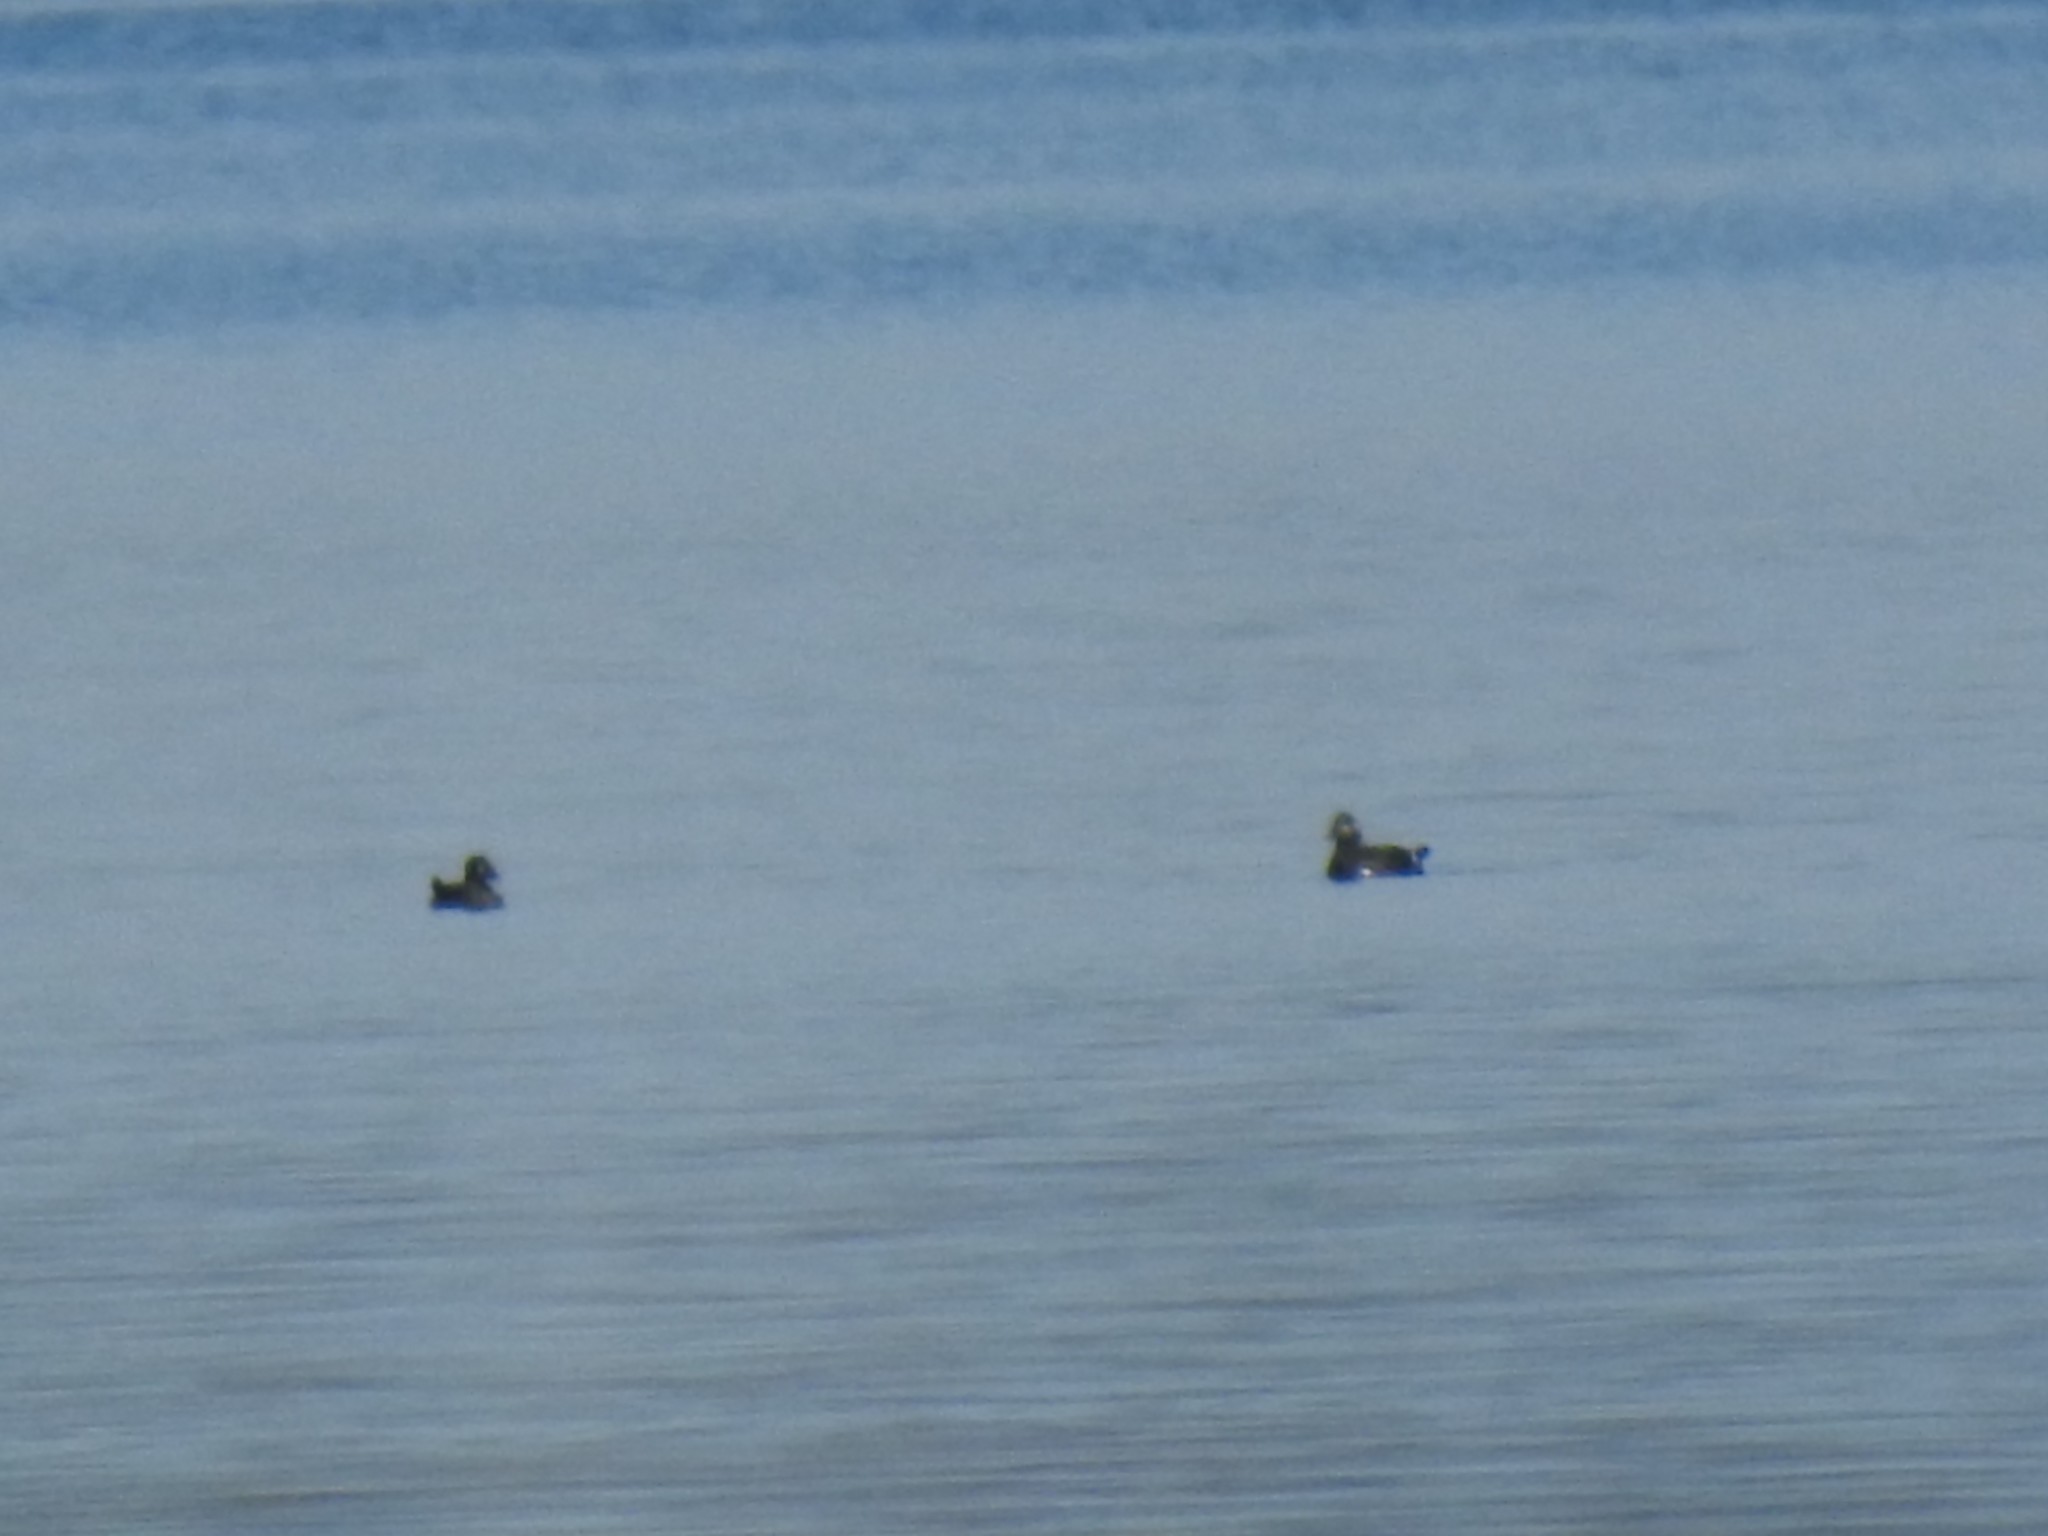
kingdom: Animalia
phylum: Chordata
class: Aves
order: Anseriformes
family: Anatidae
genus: Melanitta
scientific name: Melanitta perspicillata
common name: Surf scoter
